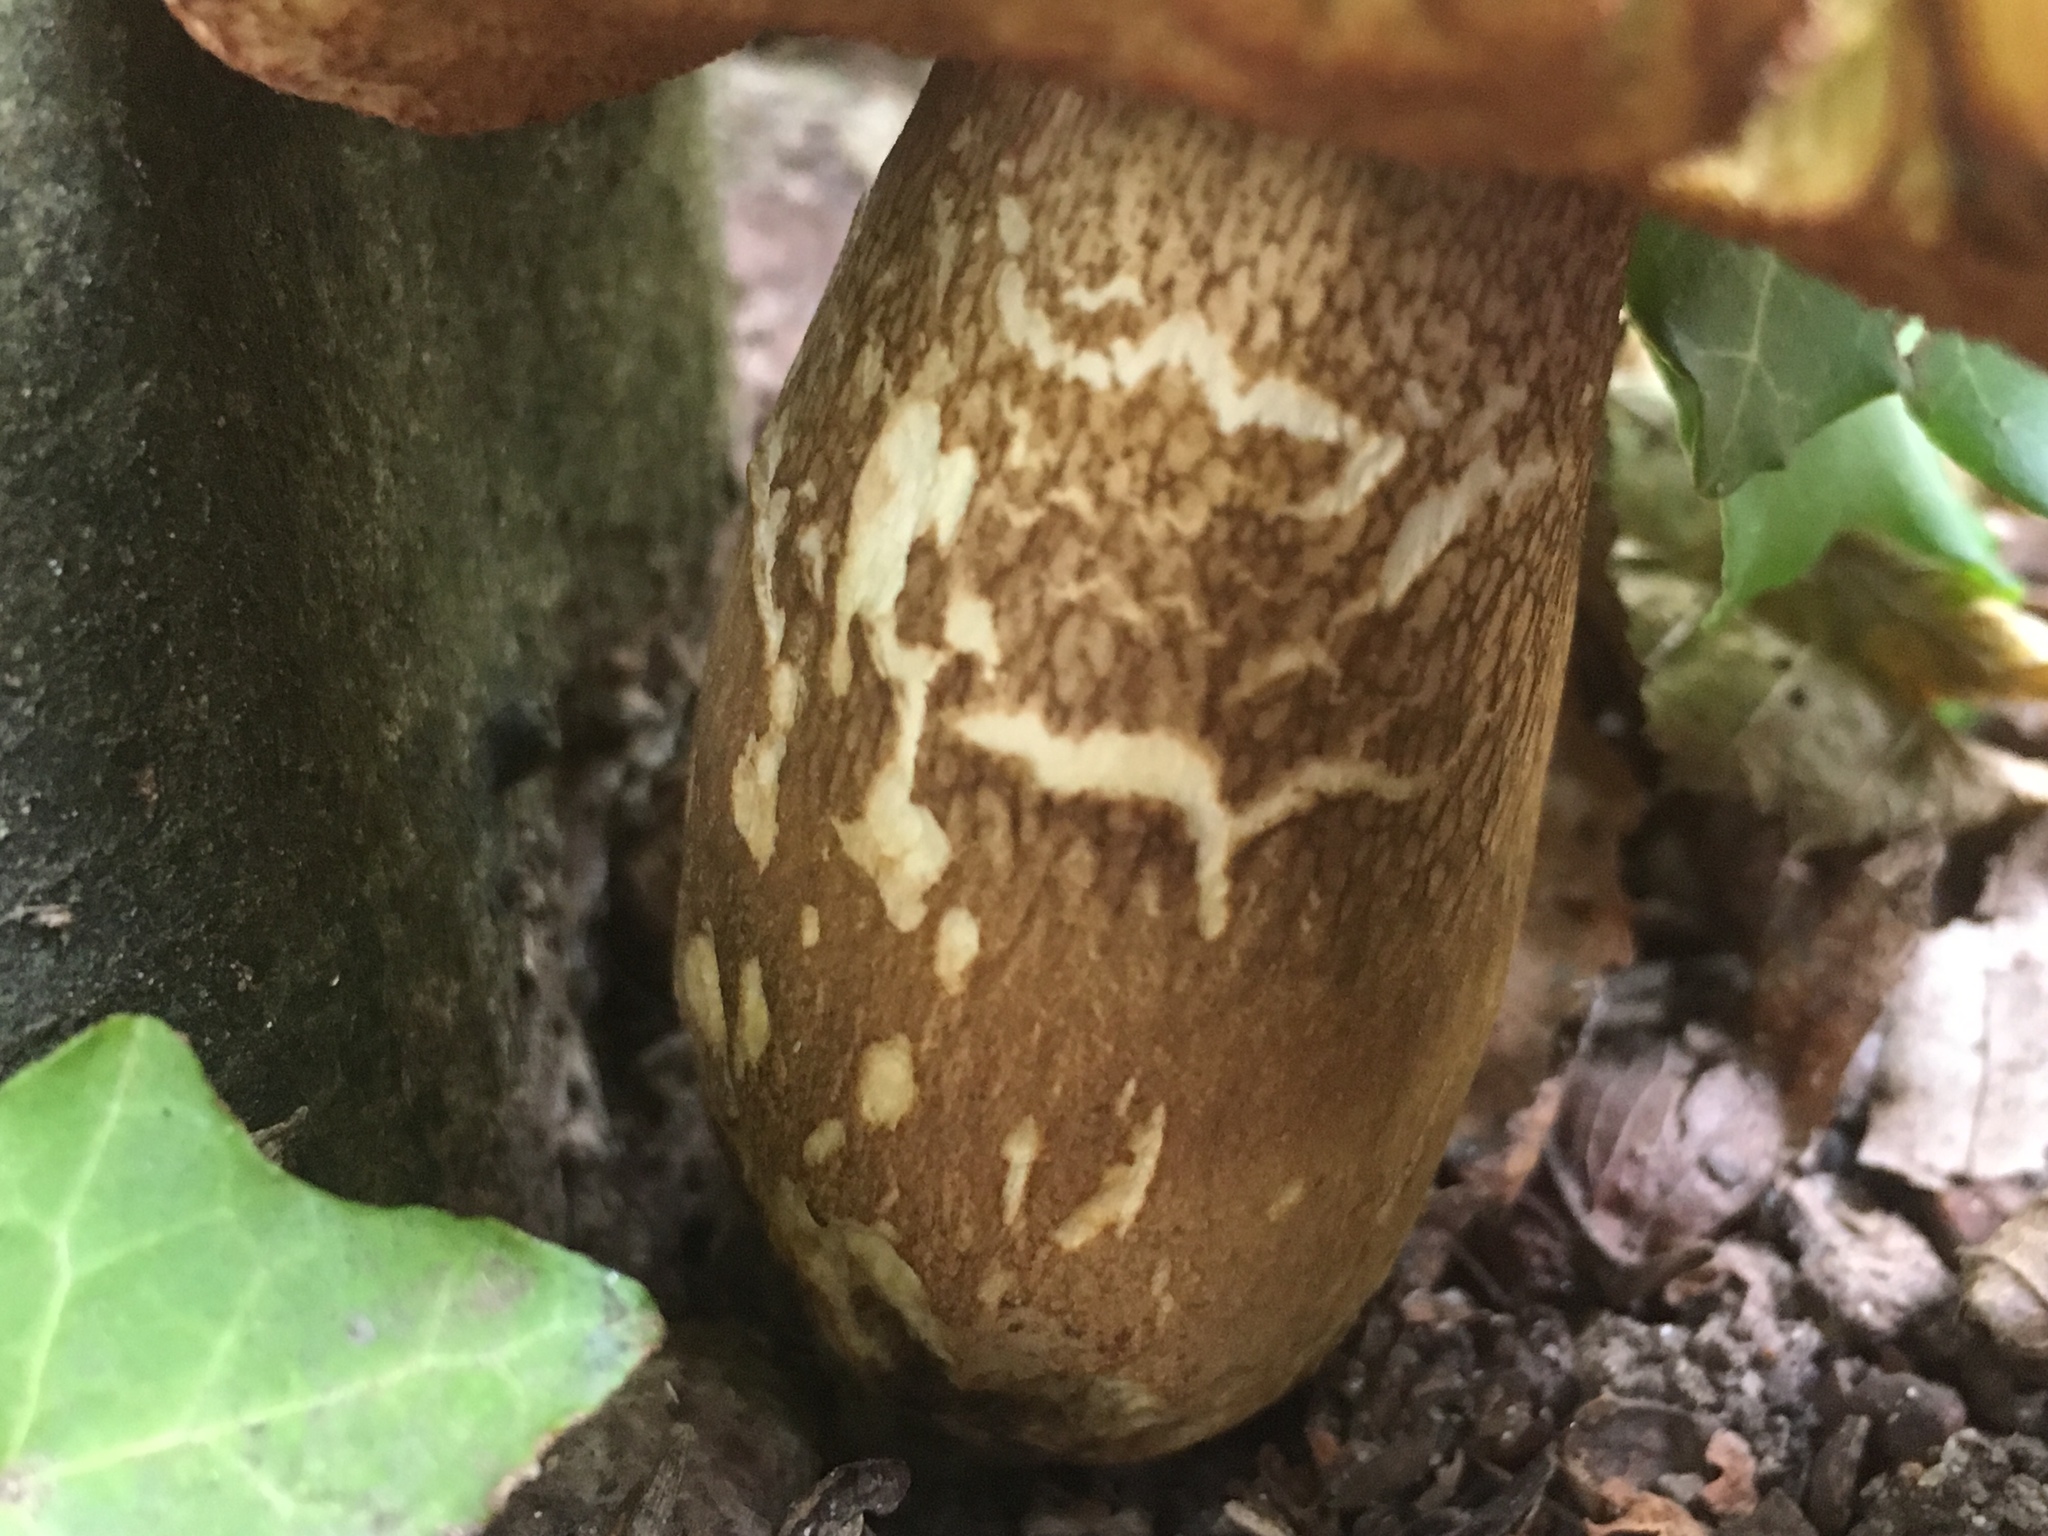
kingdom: Fungi
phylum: Basidiomycota
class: Agaricomycetes
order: Boletales
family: Boletaceae
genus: Tylopilus
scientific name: Tylopilus felleus
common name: Bitter bolete
